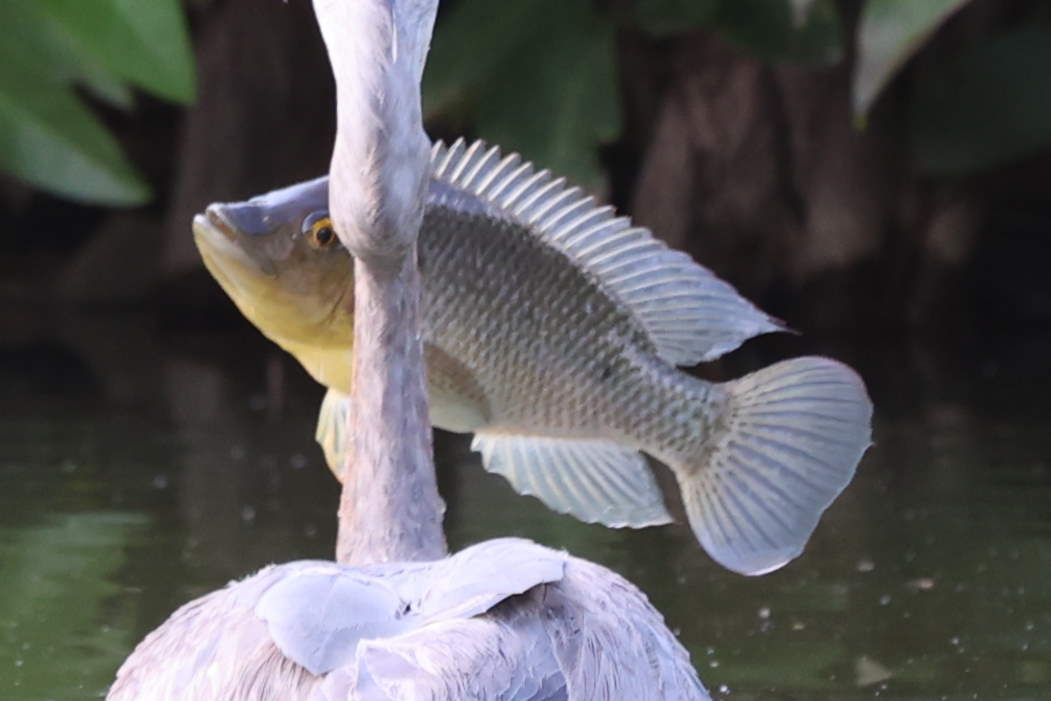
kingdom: Animalia
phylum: Chordata
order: Perciformes
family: Cichlidae
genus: Oreochromis
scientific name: Oreochromis mossambicus
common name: Mozambique tilapia
